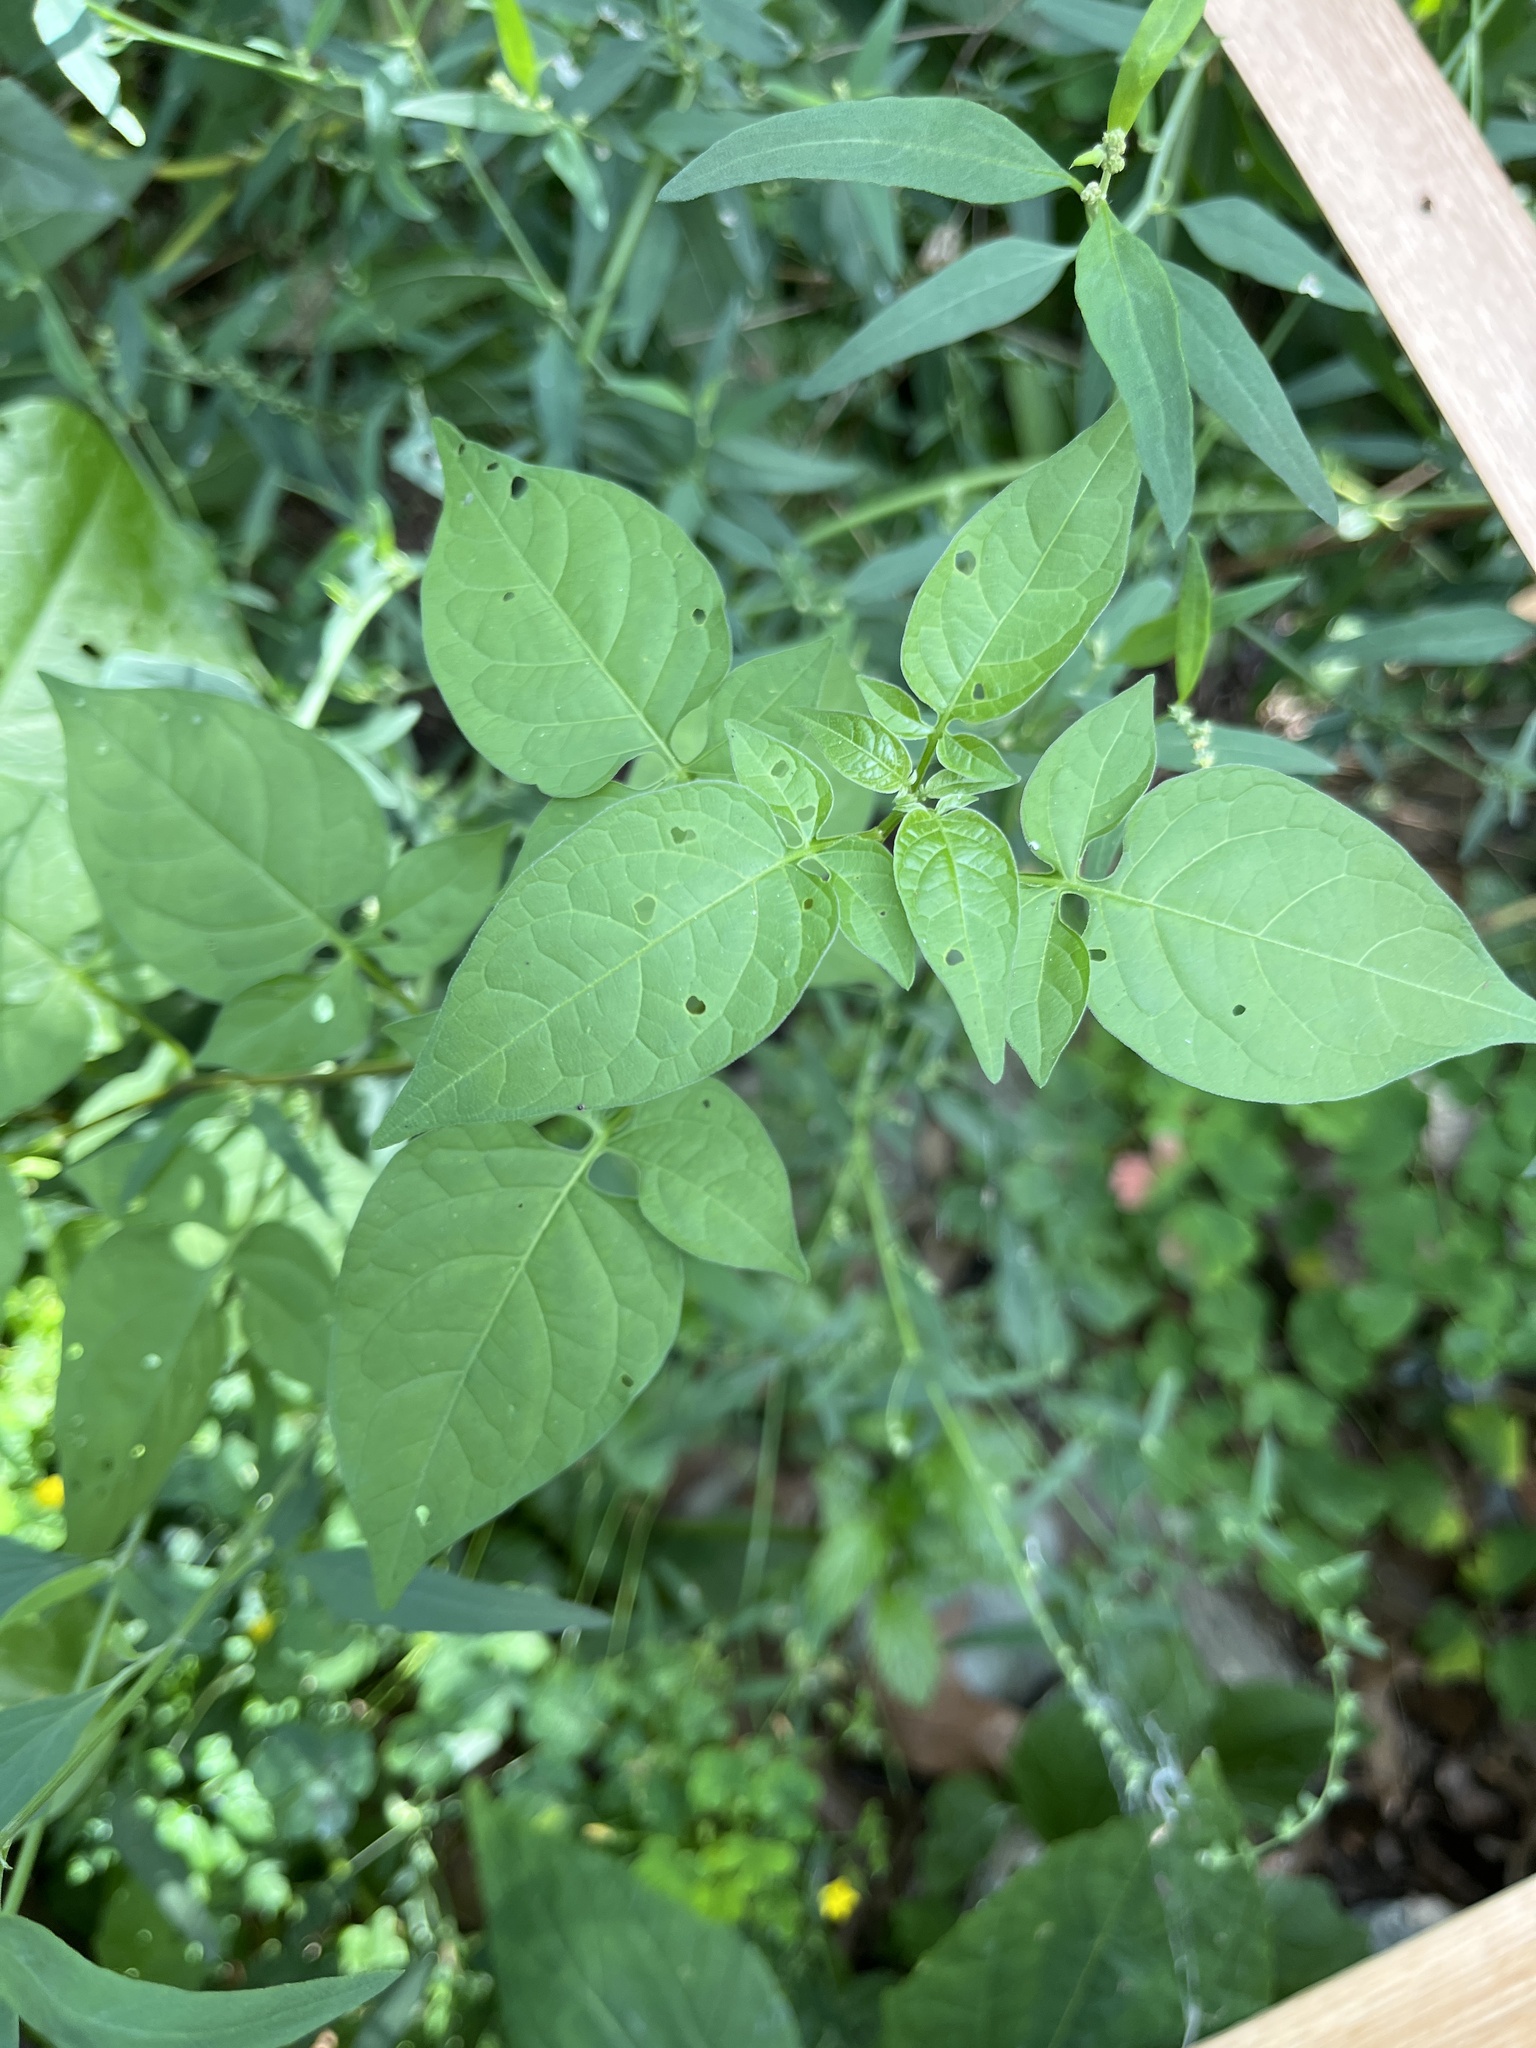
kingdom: Plantae
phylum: Tracheophyta
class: Magnoliopsida
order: Solanales
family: Solanaceae
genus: Solanum
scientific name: Solanum dulcamara
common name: Climbing nightshade
